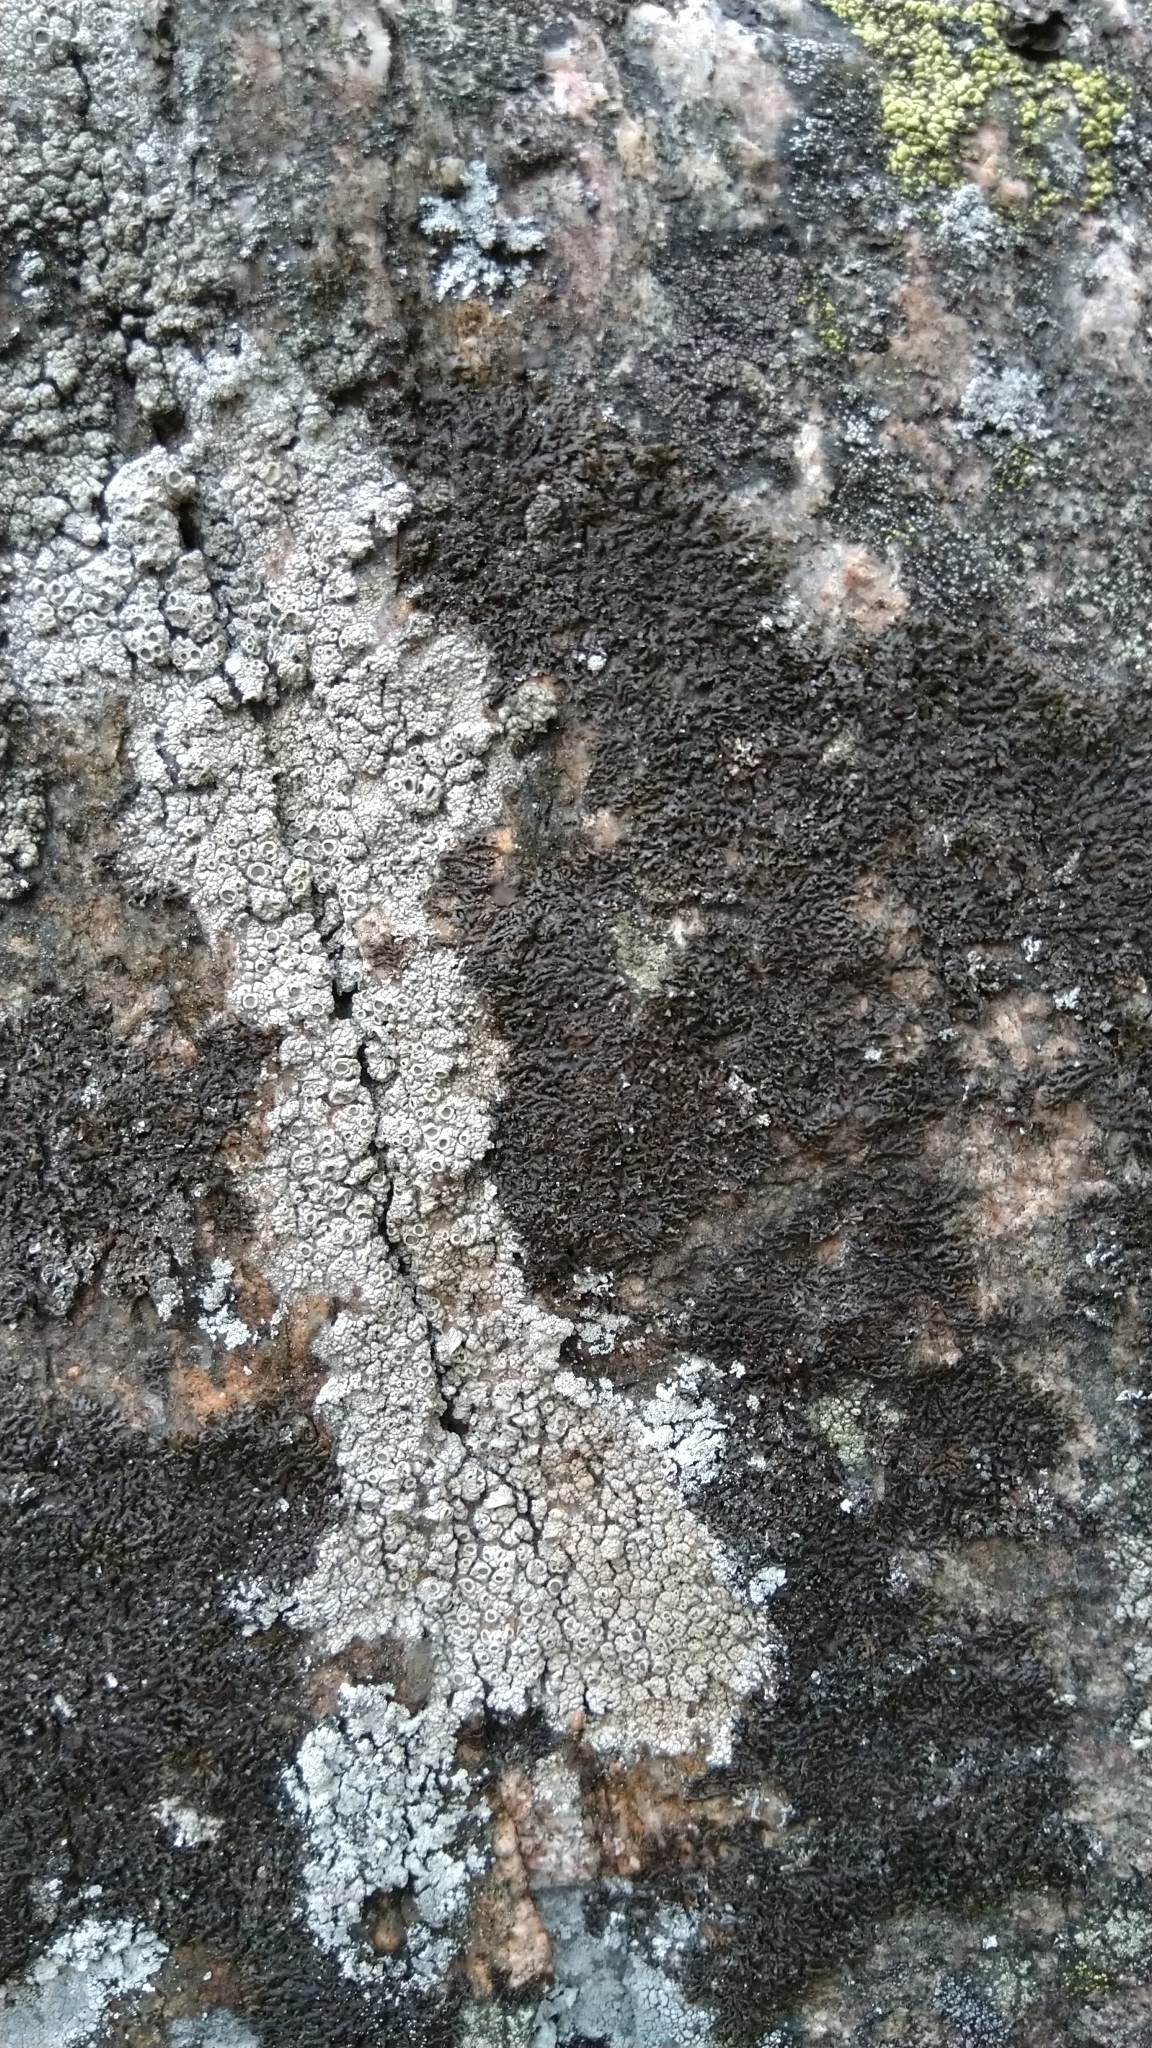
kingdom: Fungi
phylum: Ascomycota
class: Lecanoromycetes
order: Caliciales
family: Physciaceae
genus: Phaeophyscia
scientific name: Phaeophyscia sciastra
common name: Dark shadow lichen
